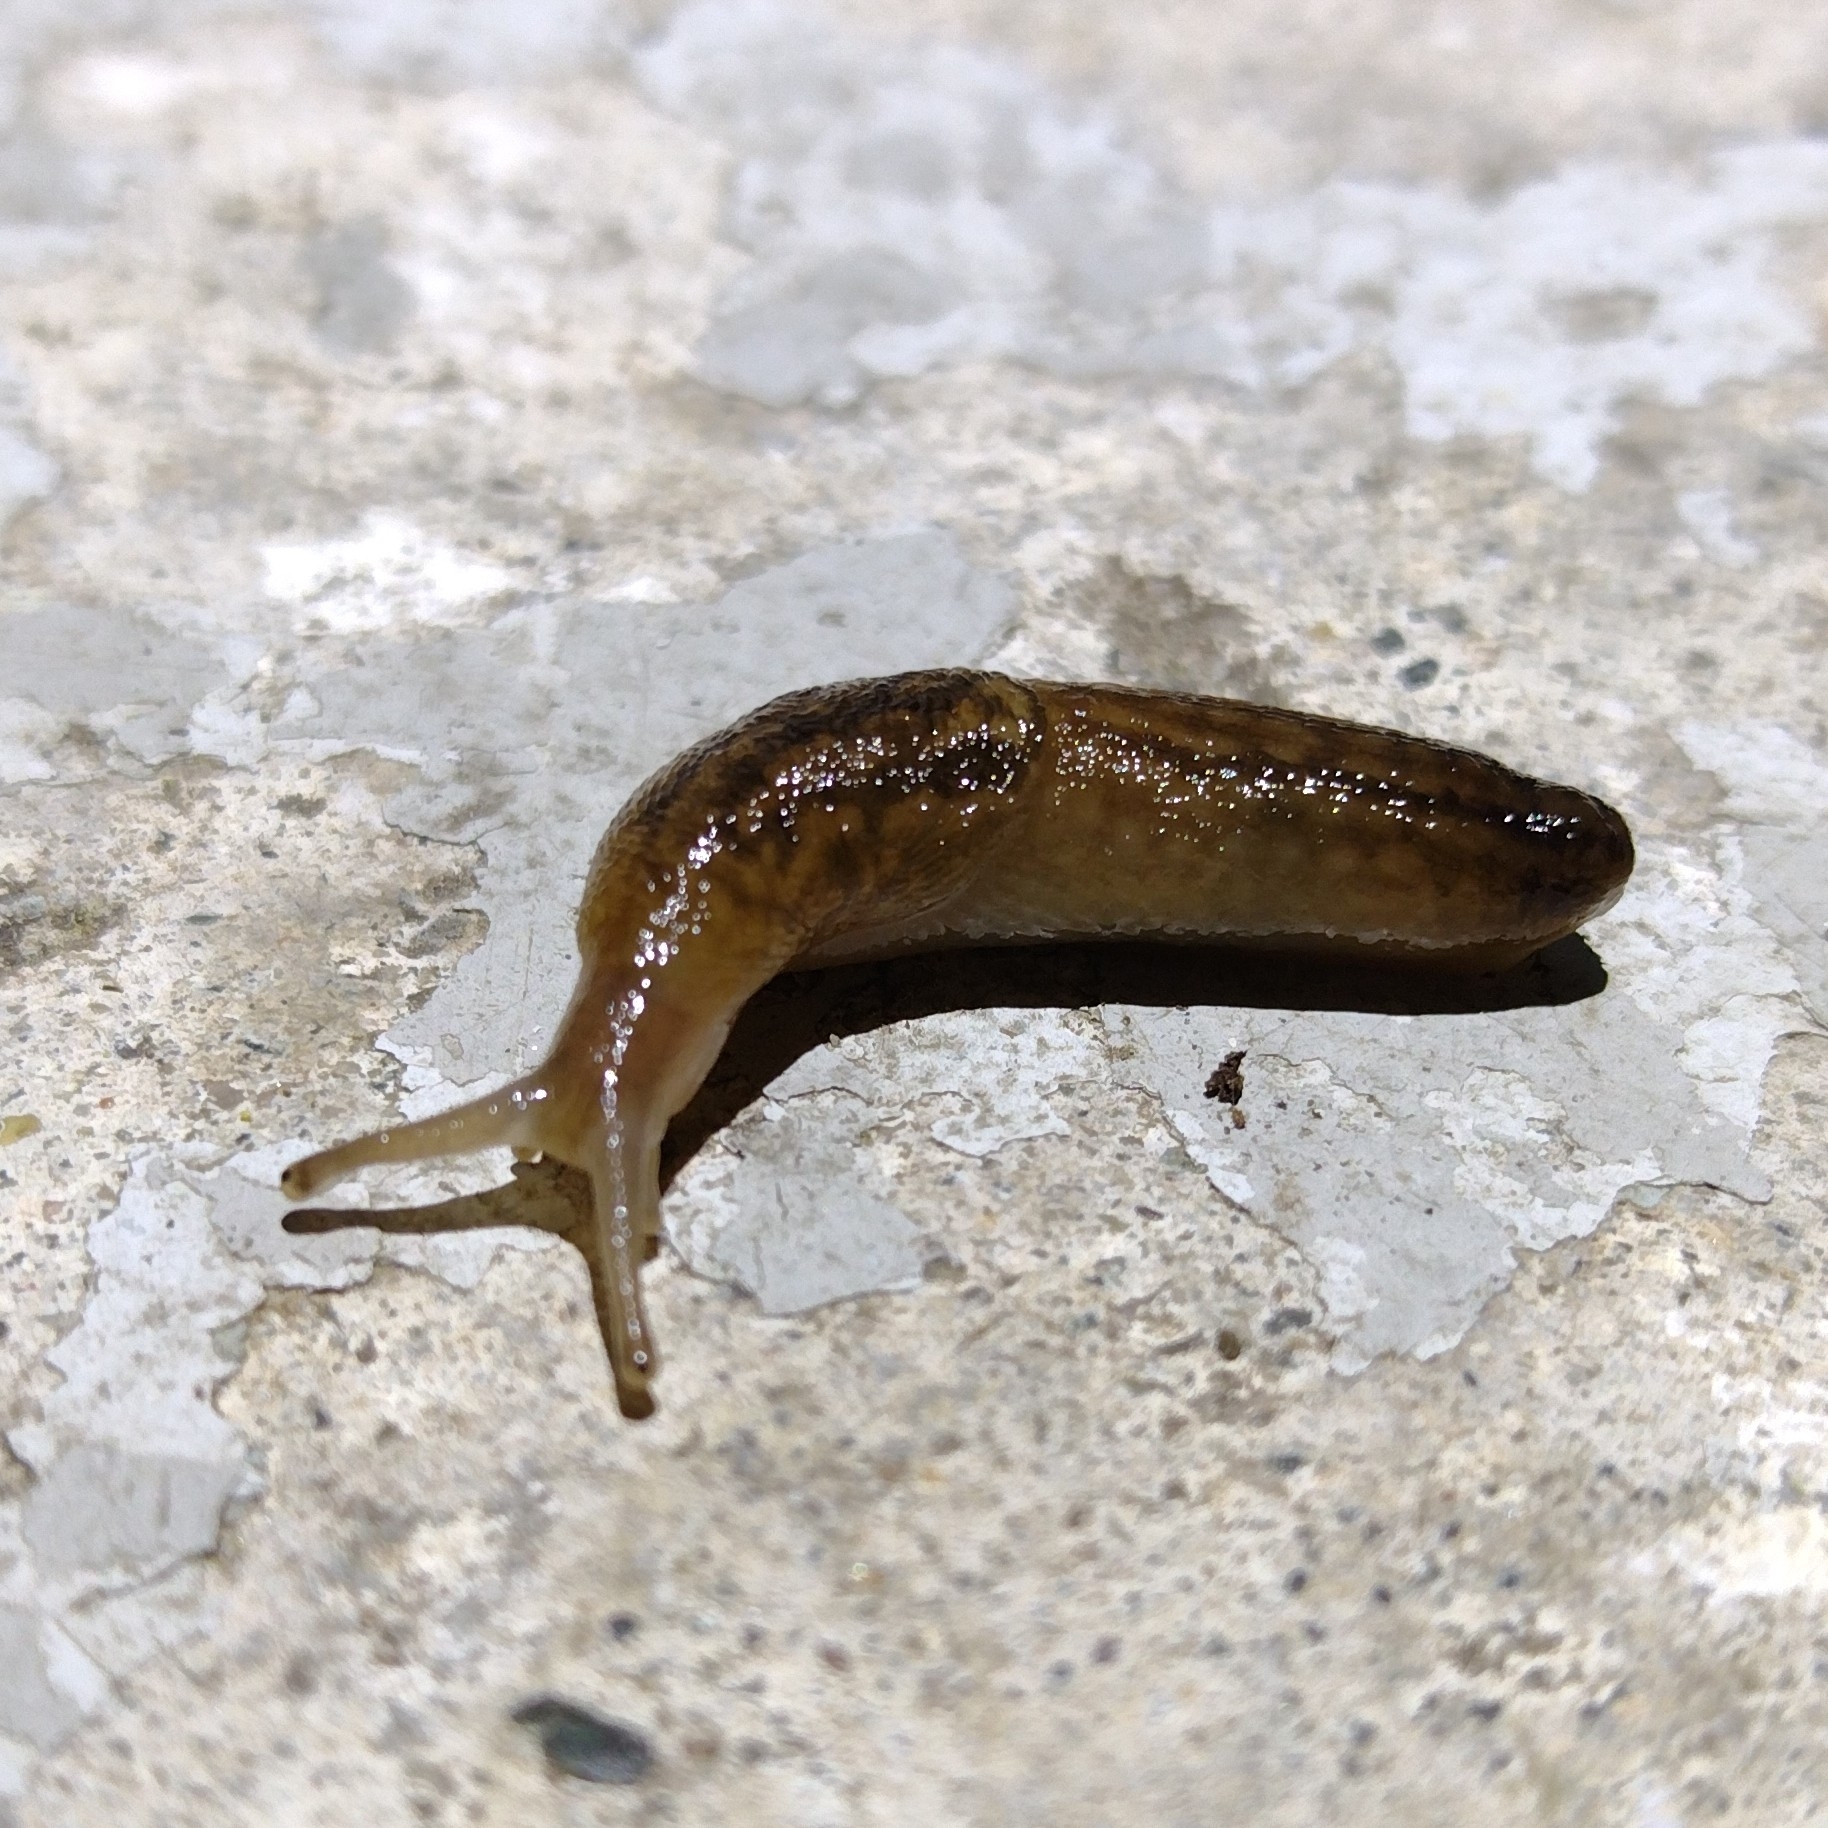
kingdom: Animalia
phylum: Mollusca
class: Gastropoda
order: Stylommatophora
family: Limacidae
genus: Ambigolimax
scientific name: Ambigolimax
